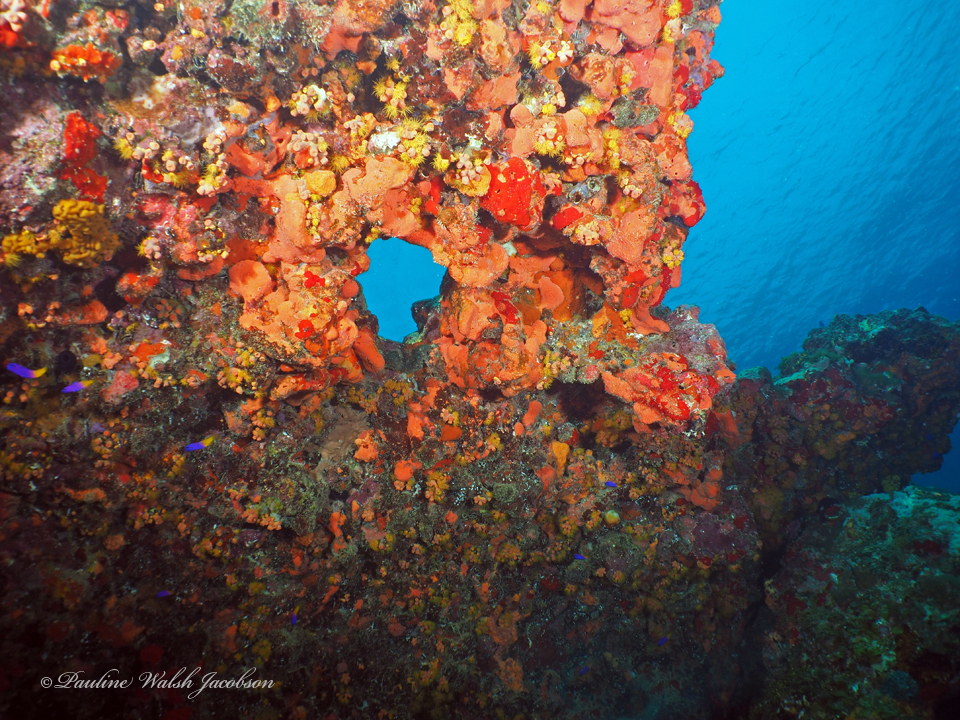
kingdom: Animalia
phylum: Chordata
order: Perciformes
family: Grammatidae
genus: Gramma
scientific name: Gramma loreto
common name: Fairy basslet
